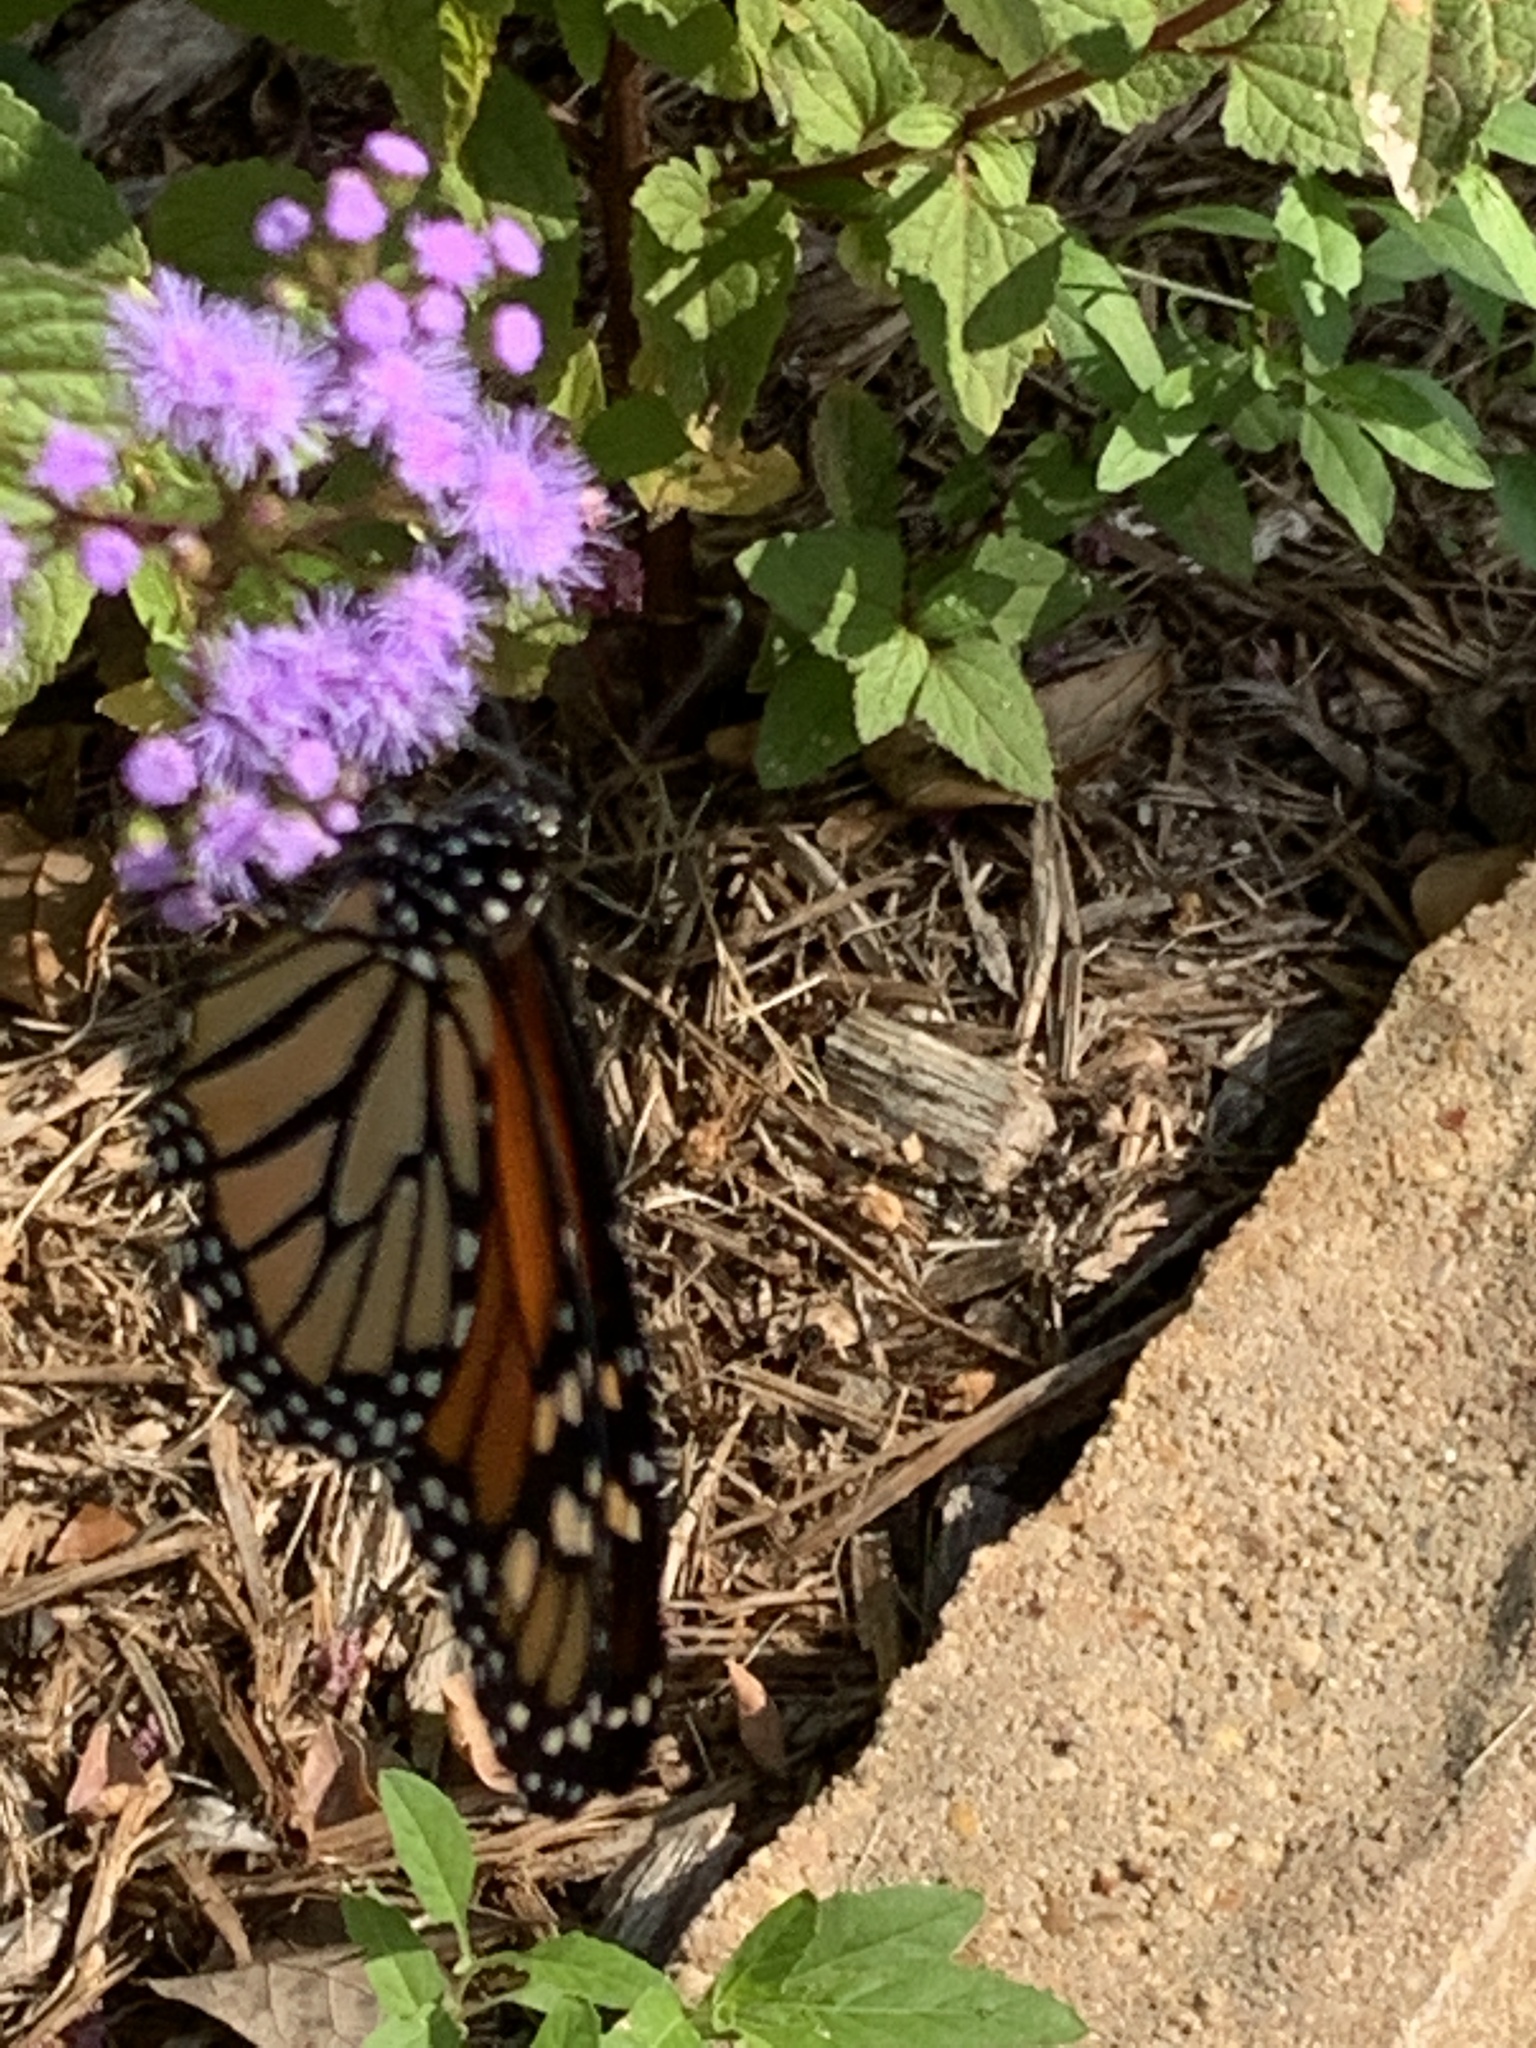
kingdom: Animalia
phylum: Arthropoda
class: Insecta
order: Lepidoptera
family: Nymphalidae
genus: Danaus
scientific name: Danaus plexippus
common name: Monarch
